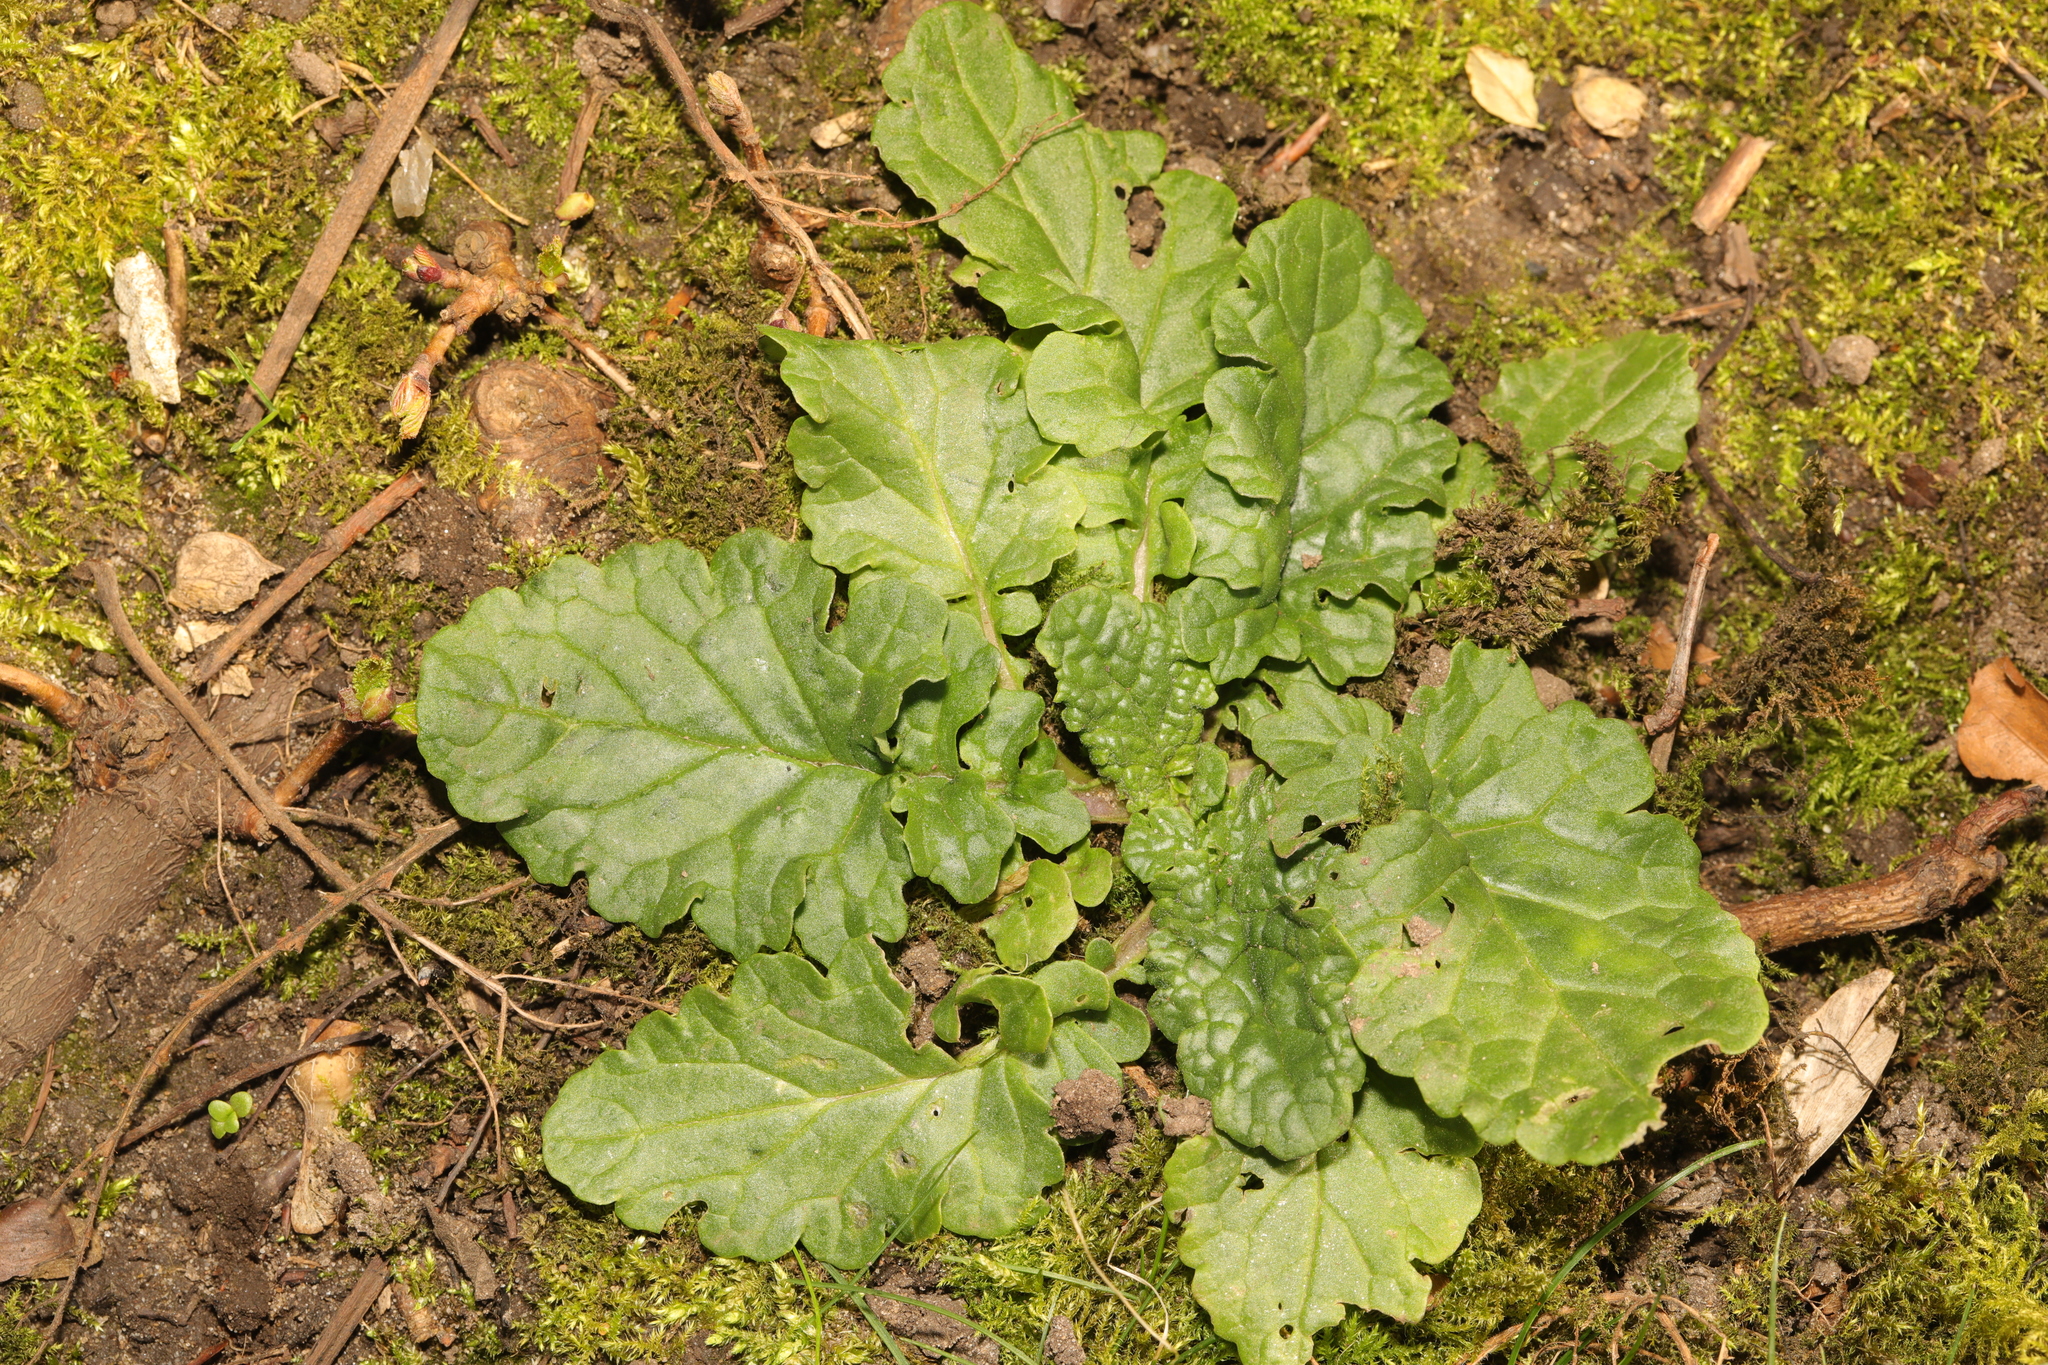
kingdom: Plantae
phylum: Tracheophyta
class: Magnoliopsida
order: Asterales
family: Asteraceae
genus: Jacobaea
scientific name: Jacobaea vulgaris
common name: Stinking willie
